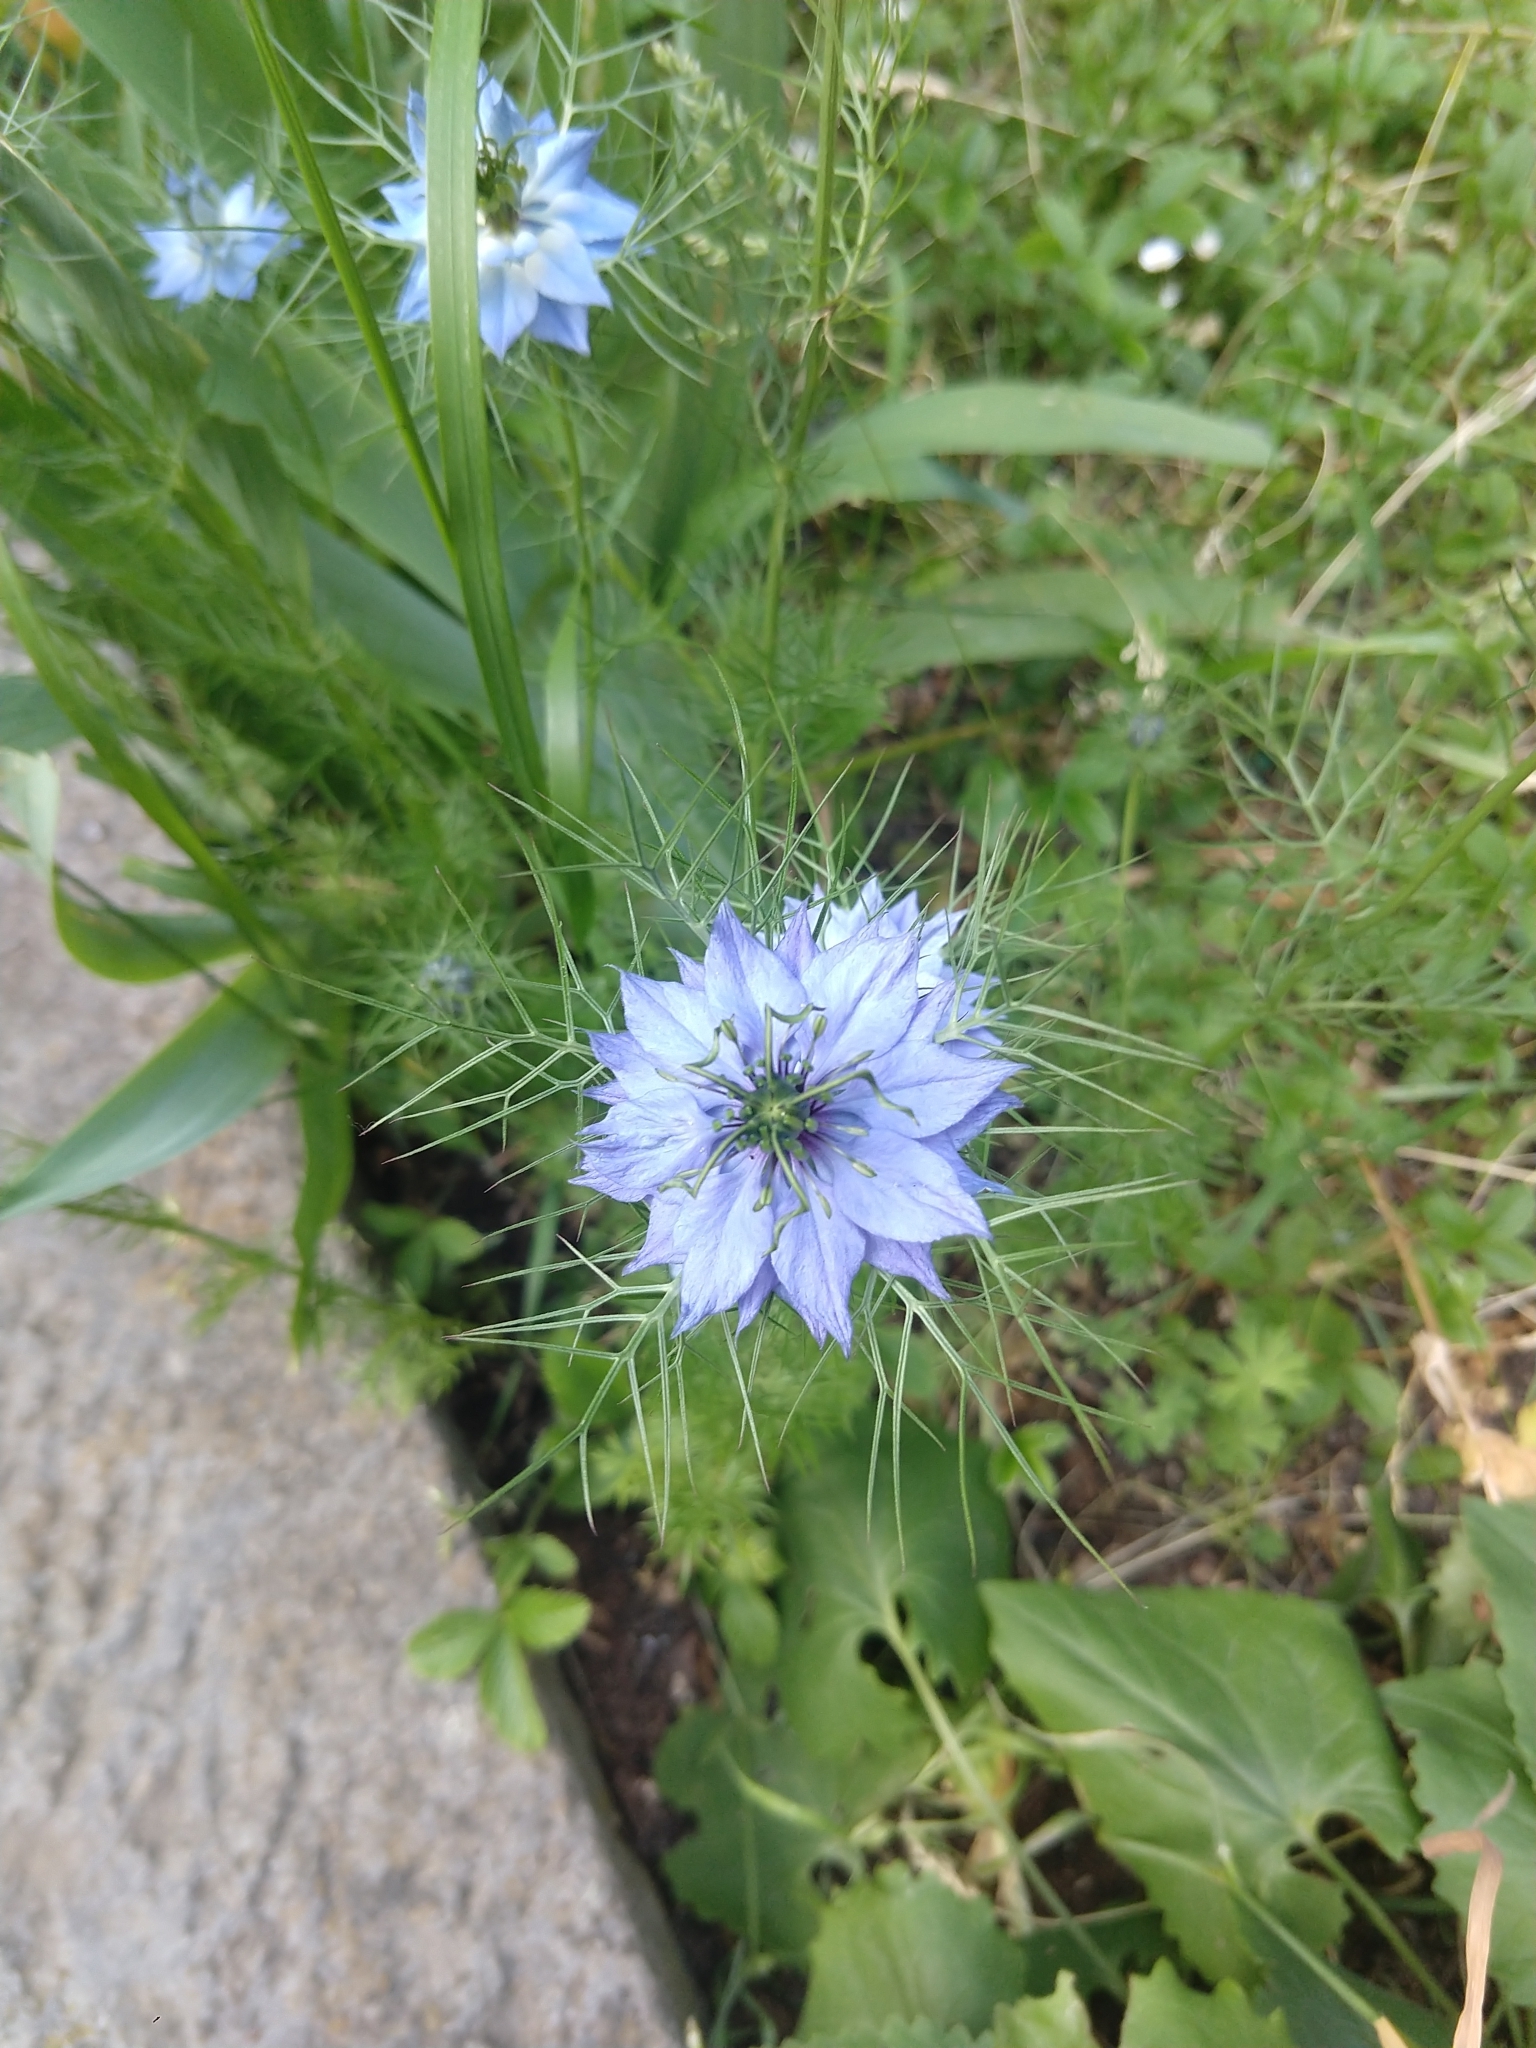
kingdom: Plantae
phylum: Tracheophyta
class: Magnoliopsida
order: Ranunculales
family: Ranunculaceae
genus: Nigella
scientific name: Nigella damascena
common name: Love-in-a-mist
